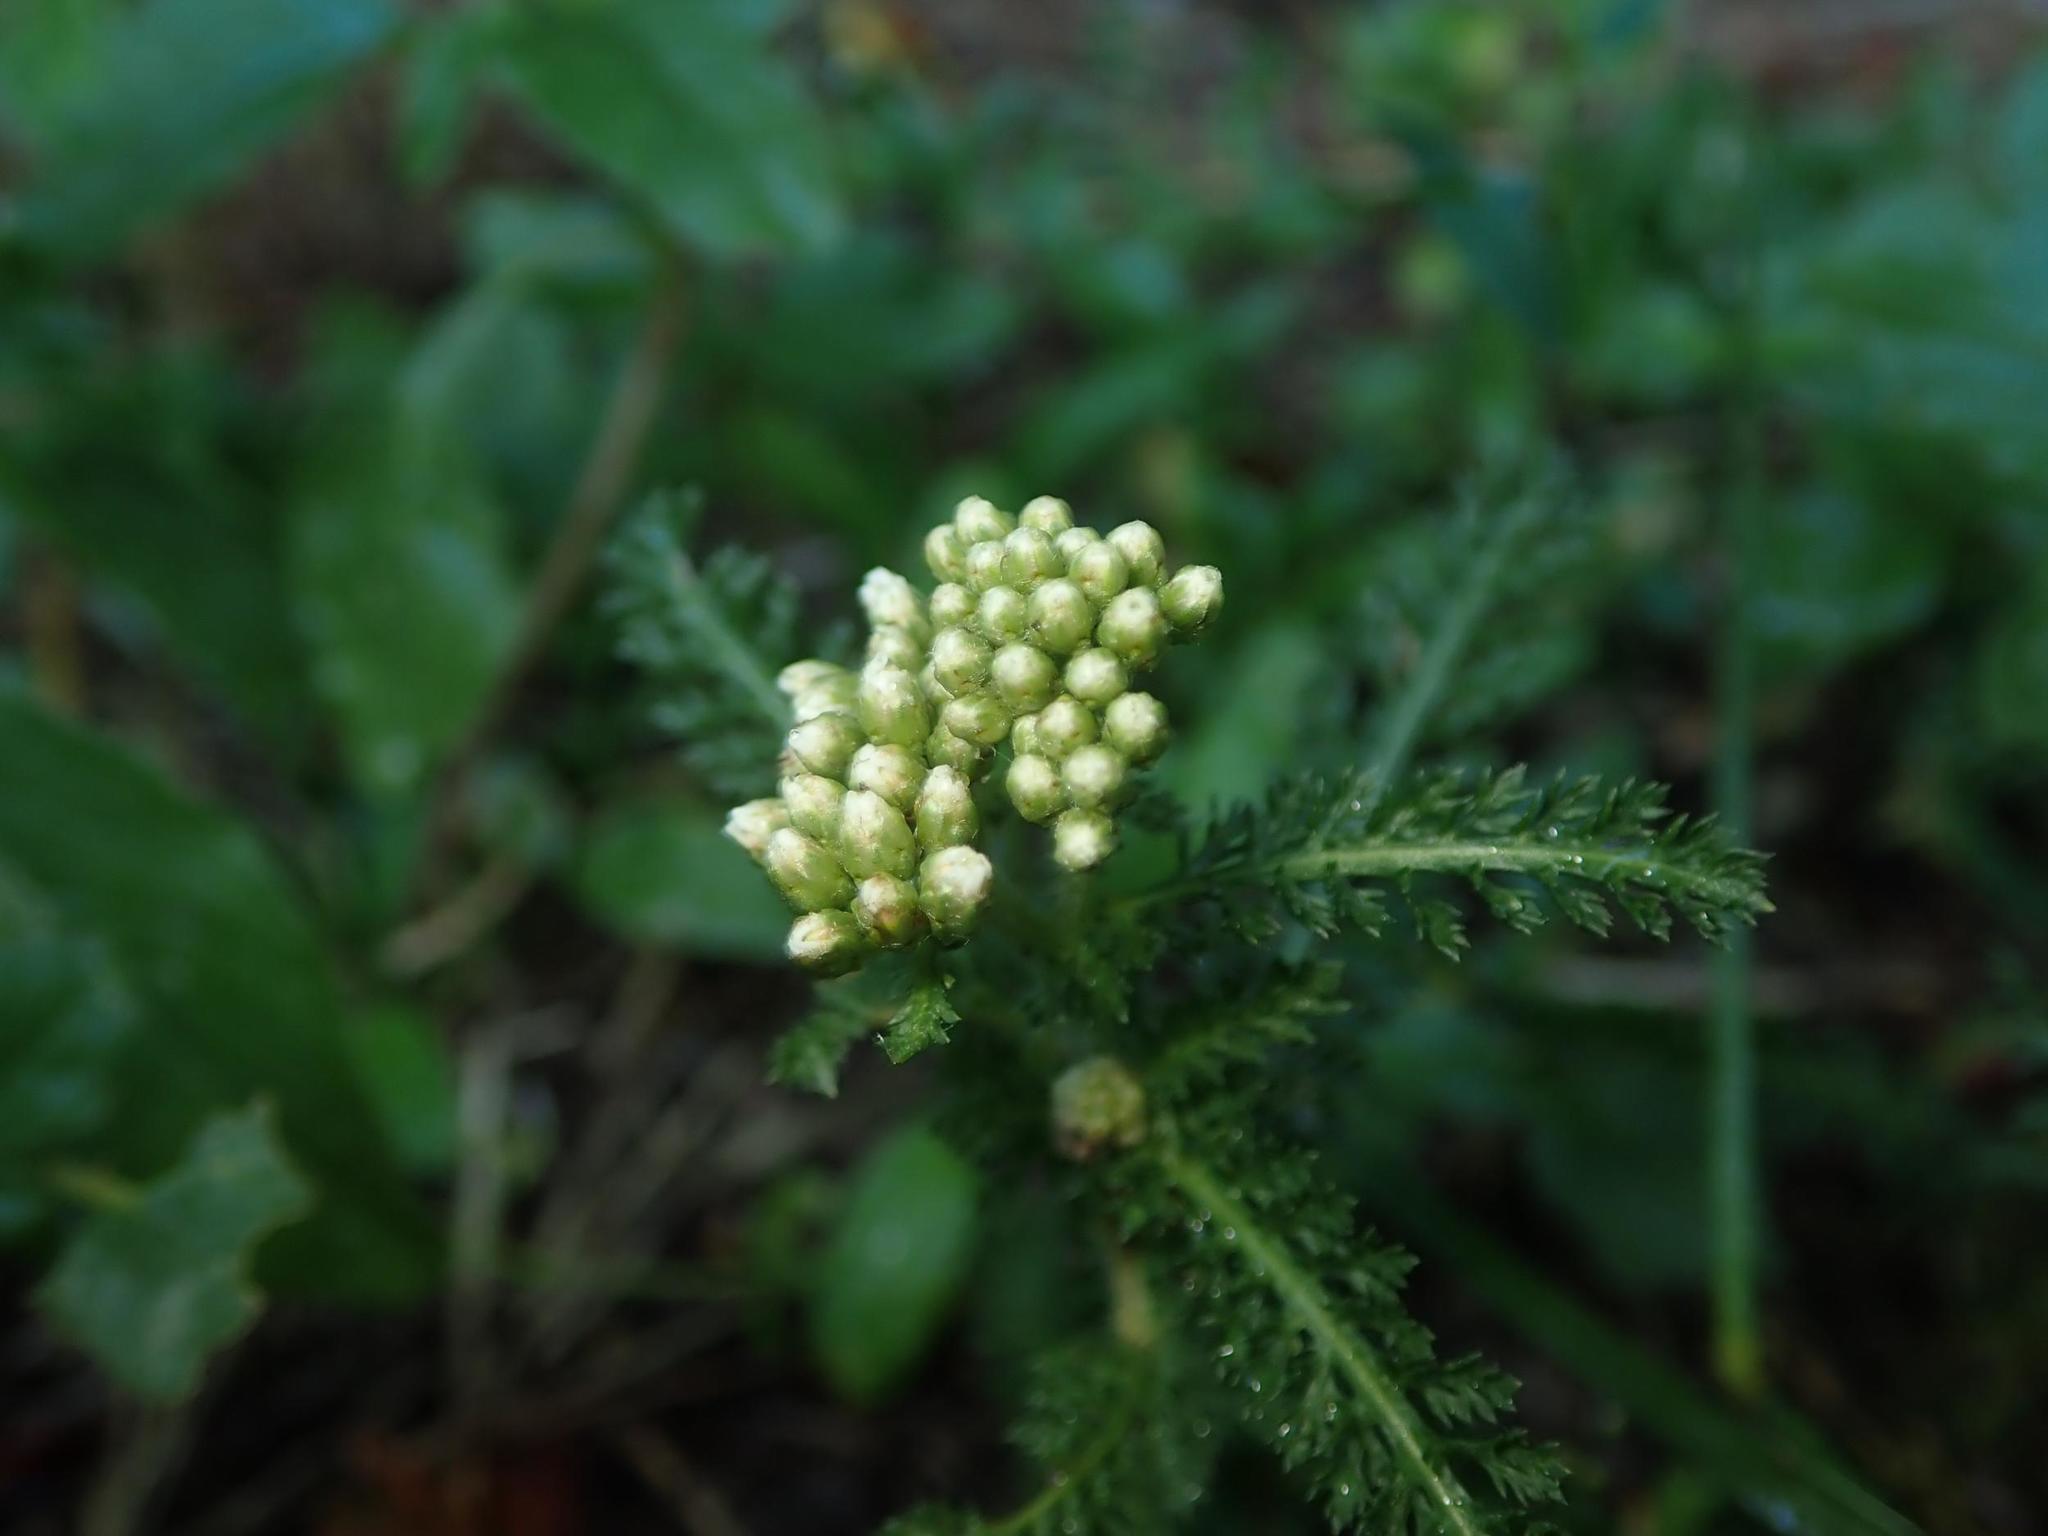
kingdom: Plantae
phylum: Tracheophyta
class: Magnoliopsida
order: Asterales
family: Asteraceae
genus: Achillea
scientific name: Achillea millefolium
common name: Yarrow
